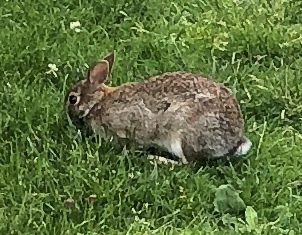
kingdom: Animalia
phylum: Chordata
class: Mammalia
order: Lagomorpha
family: Leporidae
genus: Sylvilagus
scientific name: Sylvilagus floridanus
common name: Eastern cottontail
